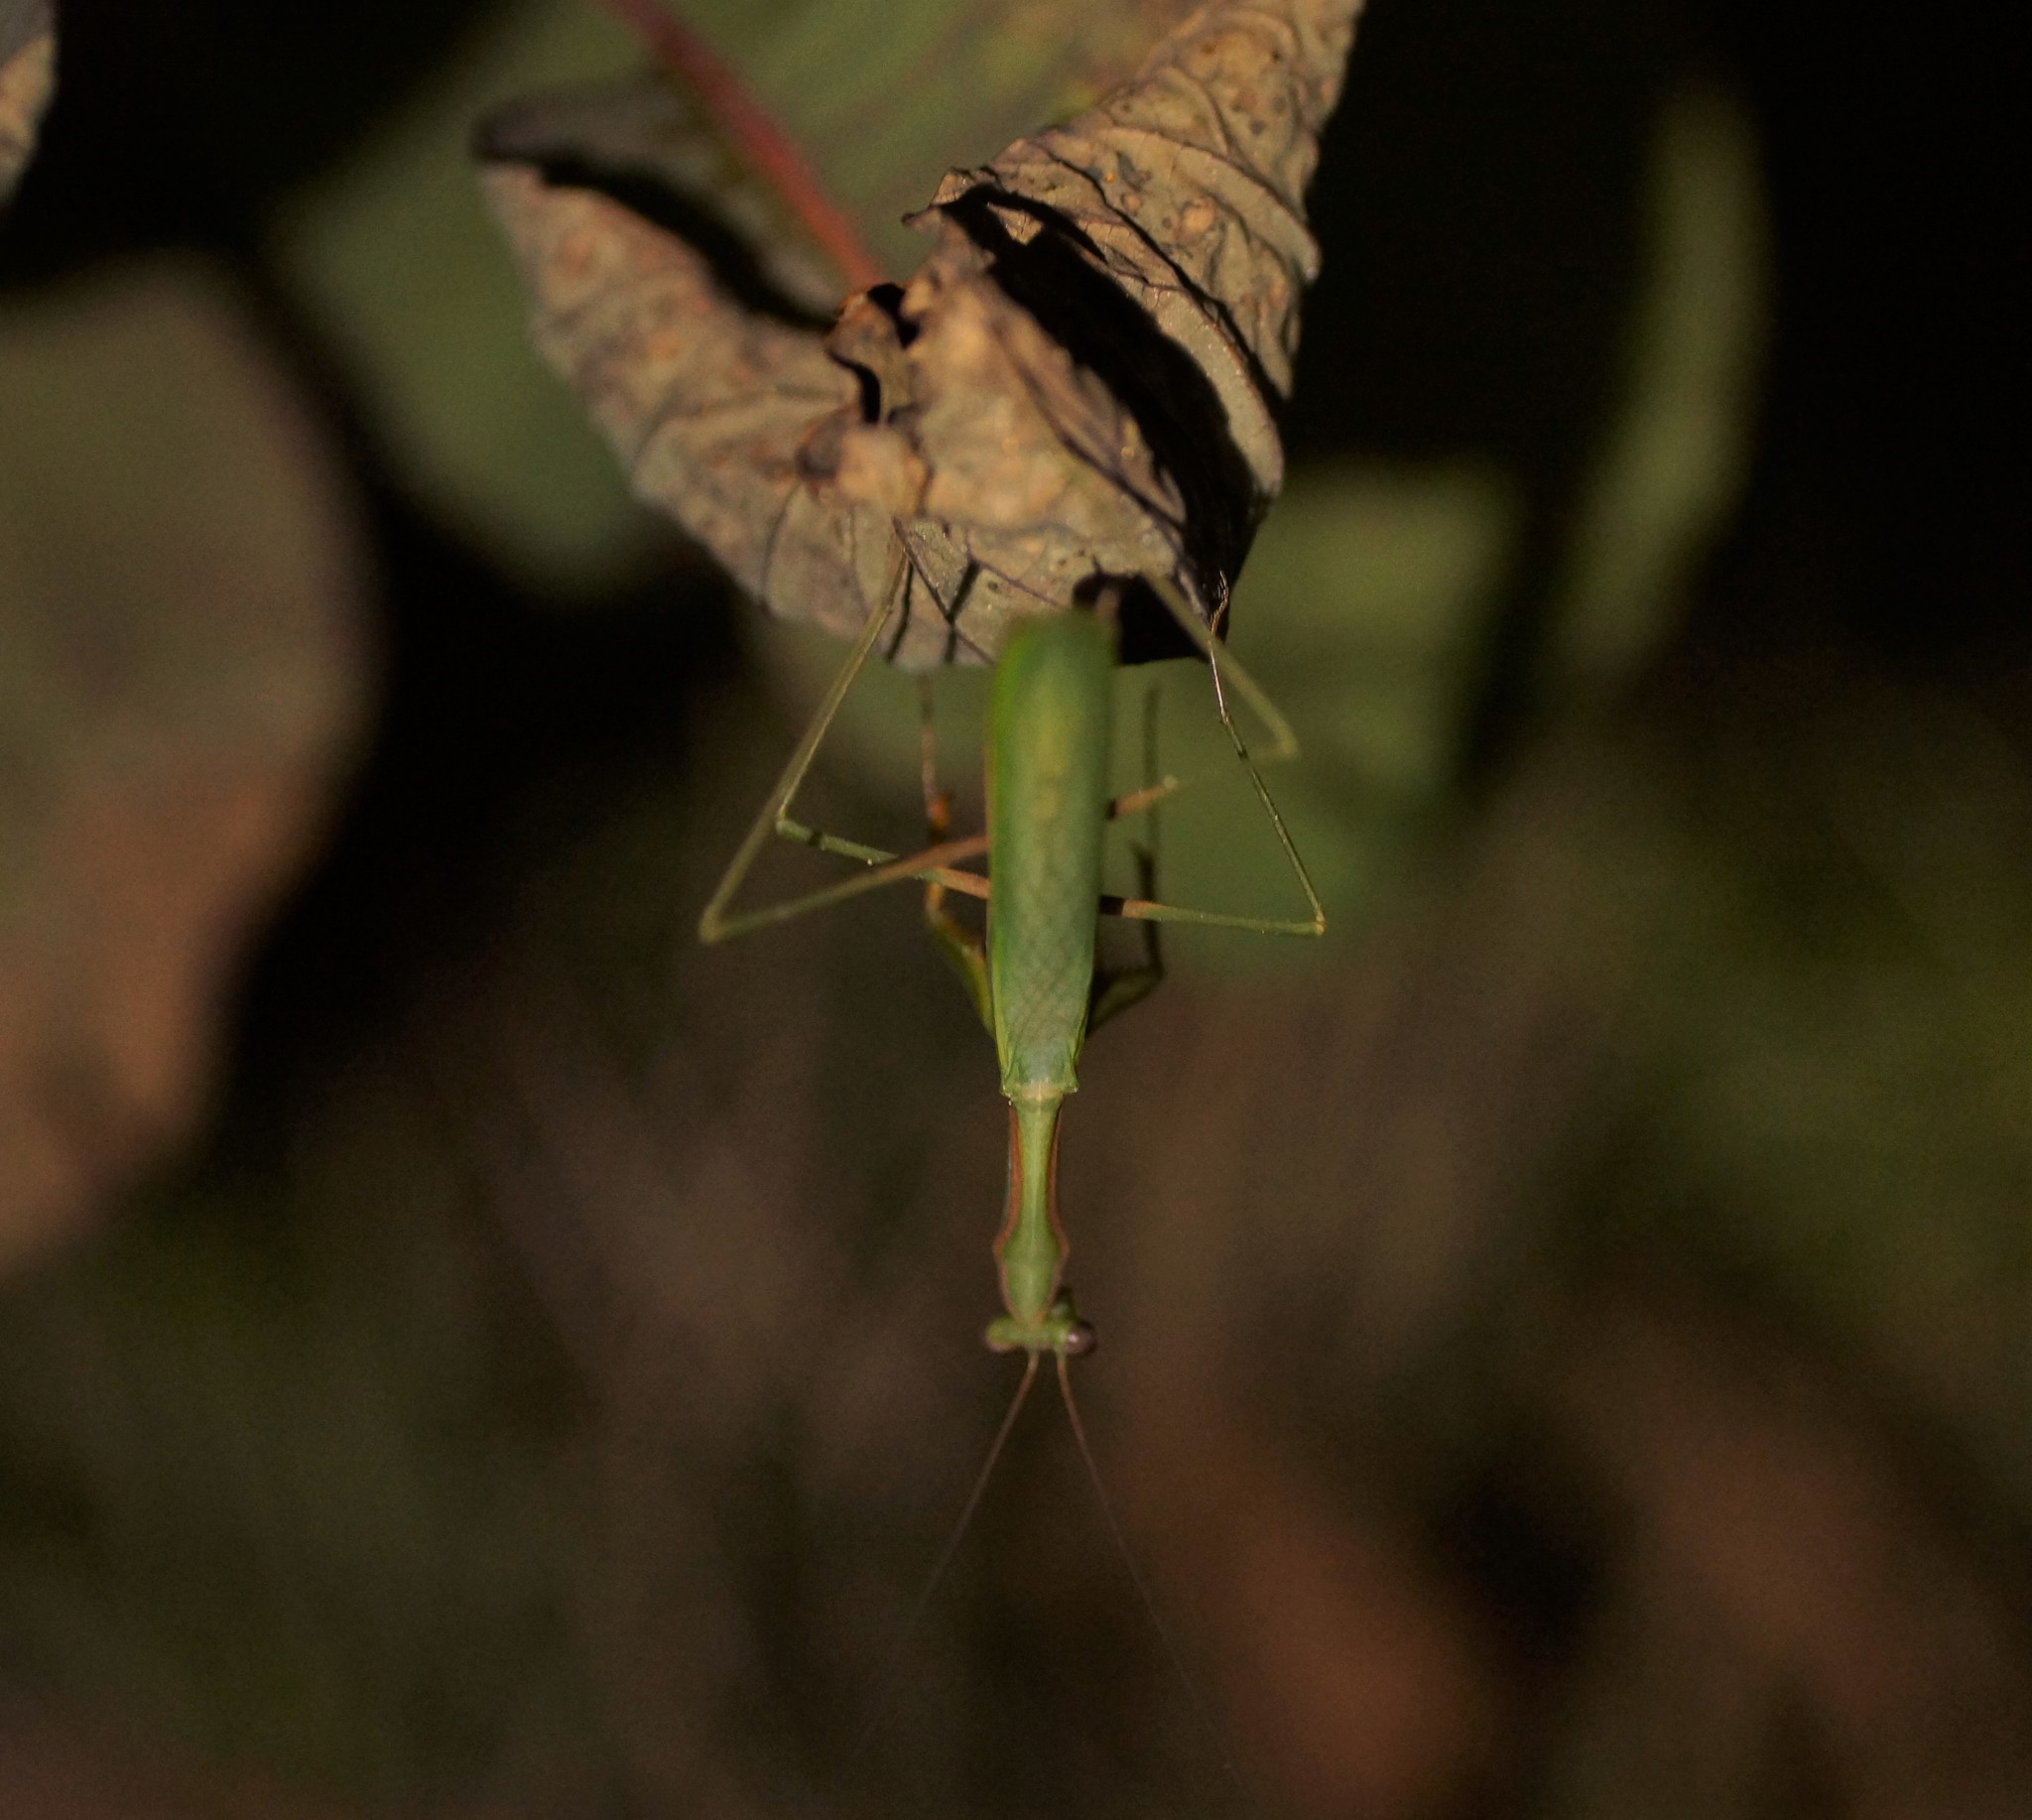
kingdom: Animalia
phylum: Arthropoda
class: Insecta
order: Mantodea
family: Mantidae
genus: Pseudomantis
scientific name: Pseudomantis albofimbriata
